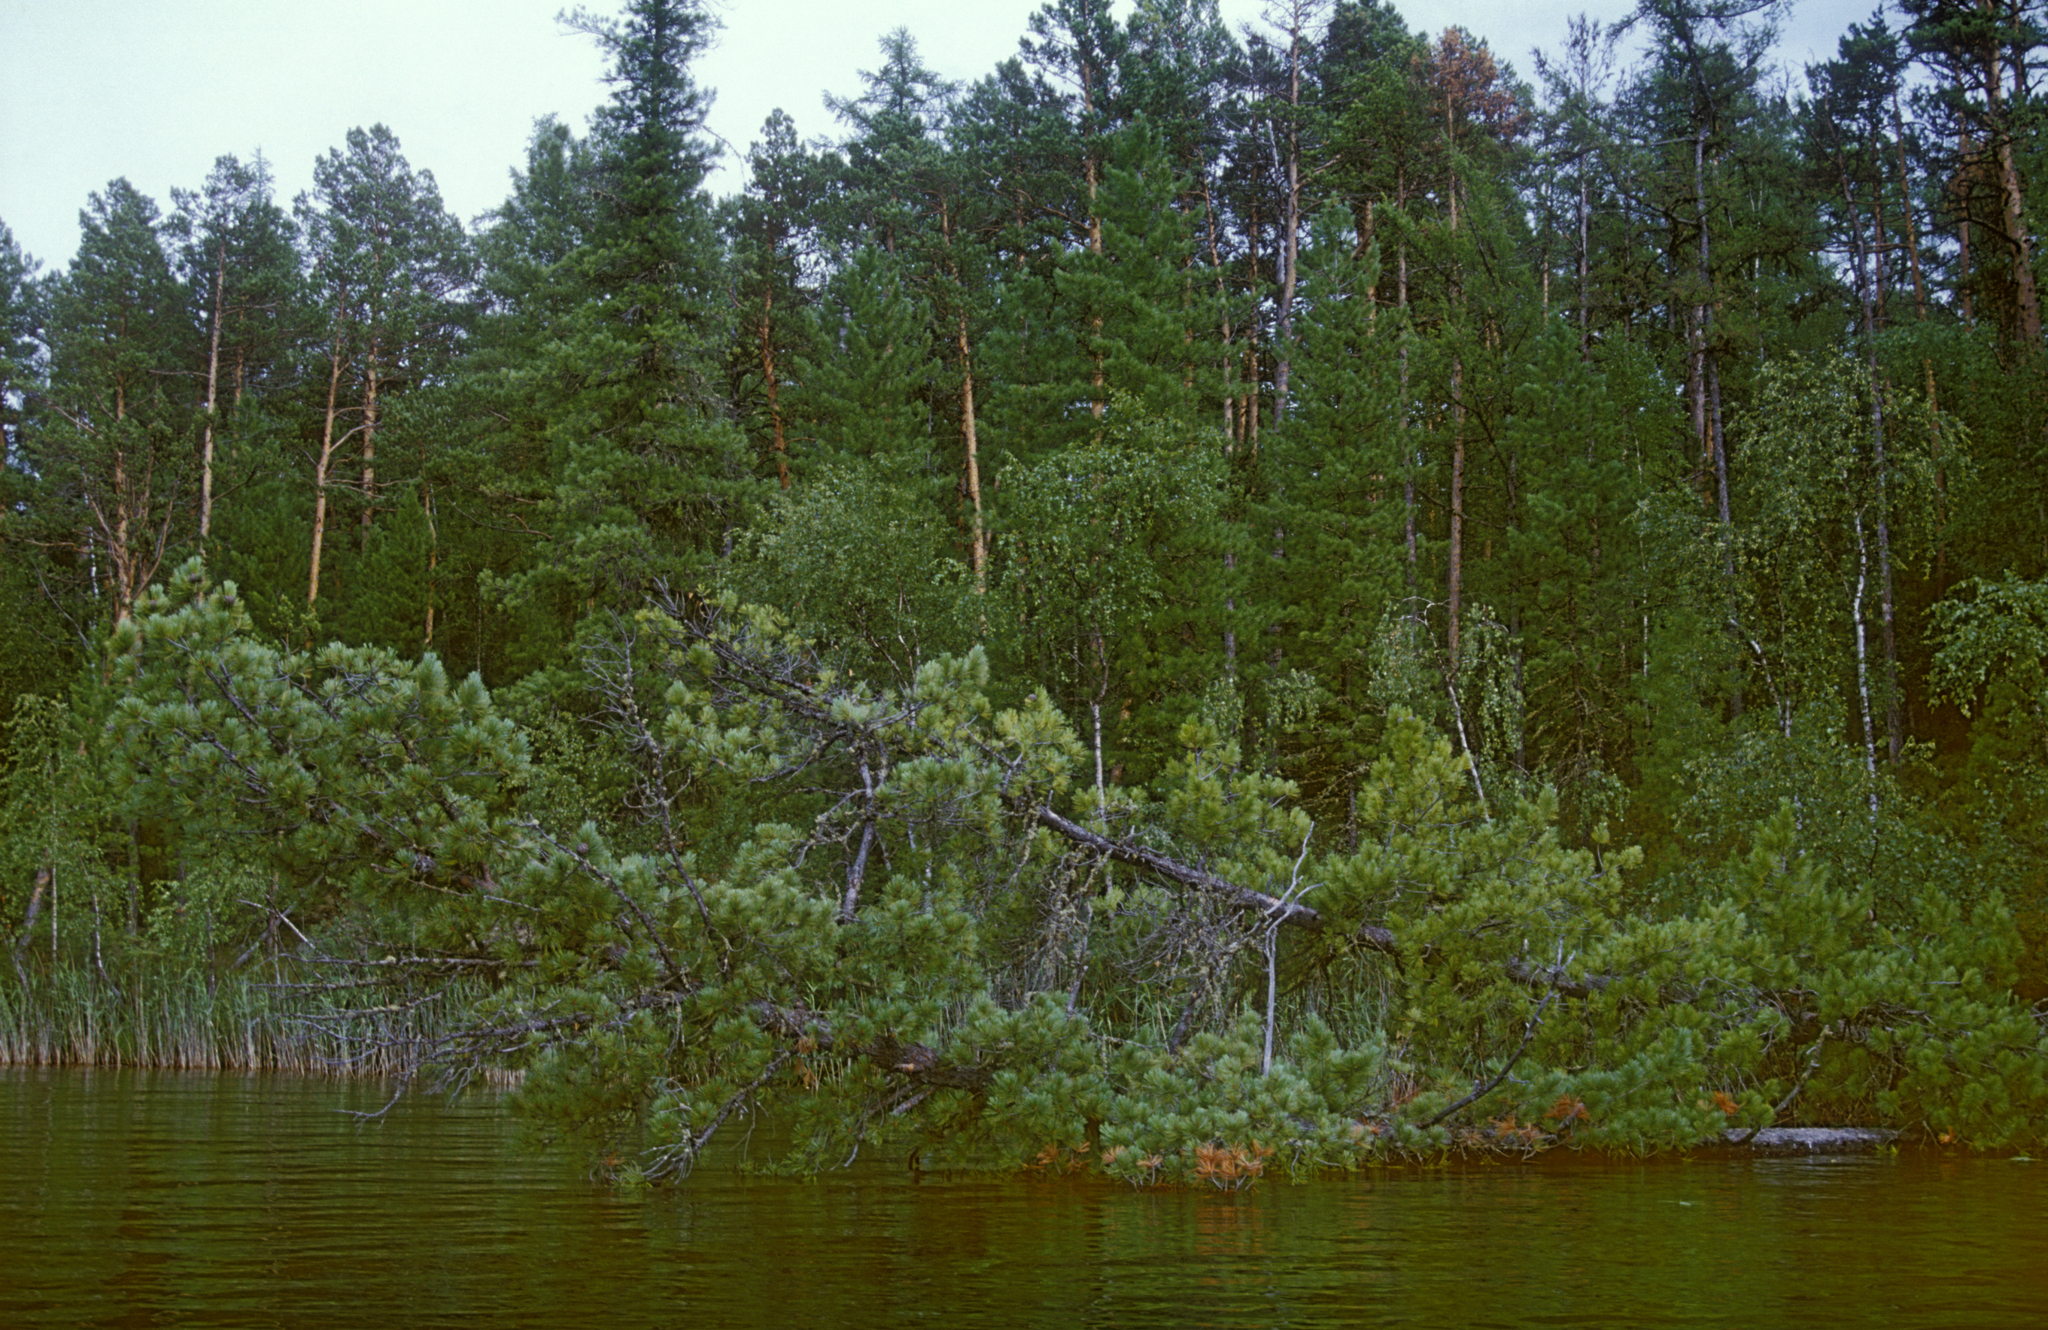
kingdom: Plantae
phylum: Tracheophyta
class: Pinopsida
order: Pinales
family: Pinaceae
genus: Pinus
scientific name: Pinus sibirica
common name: Siberian pine
